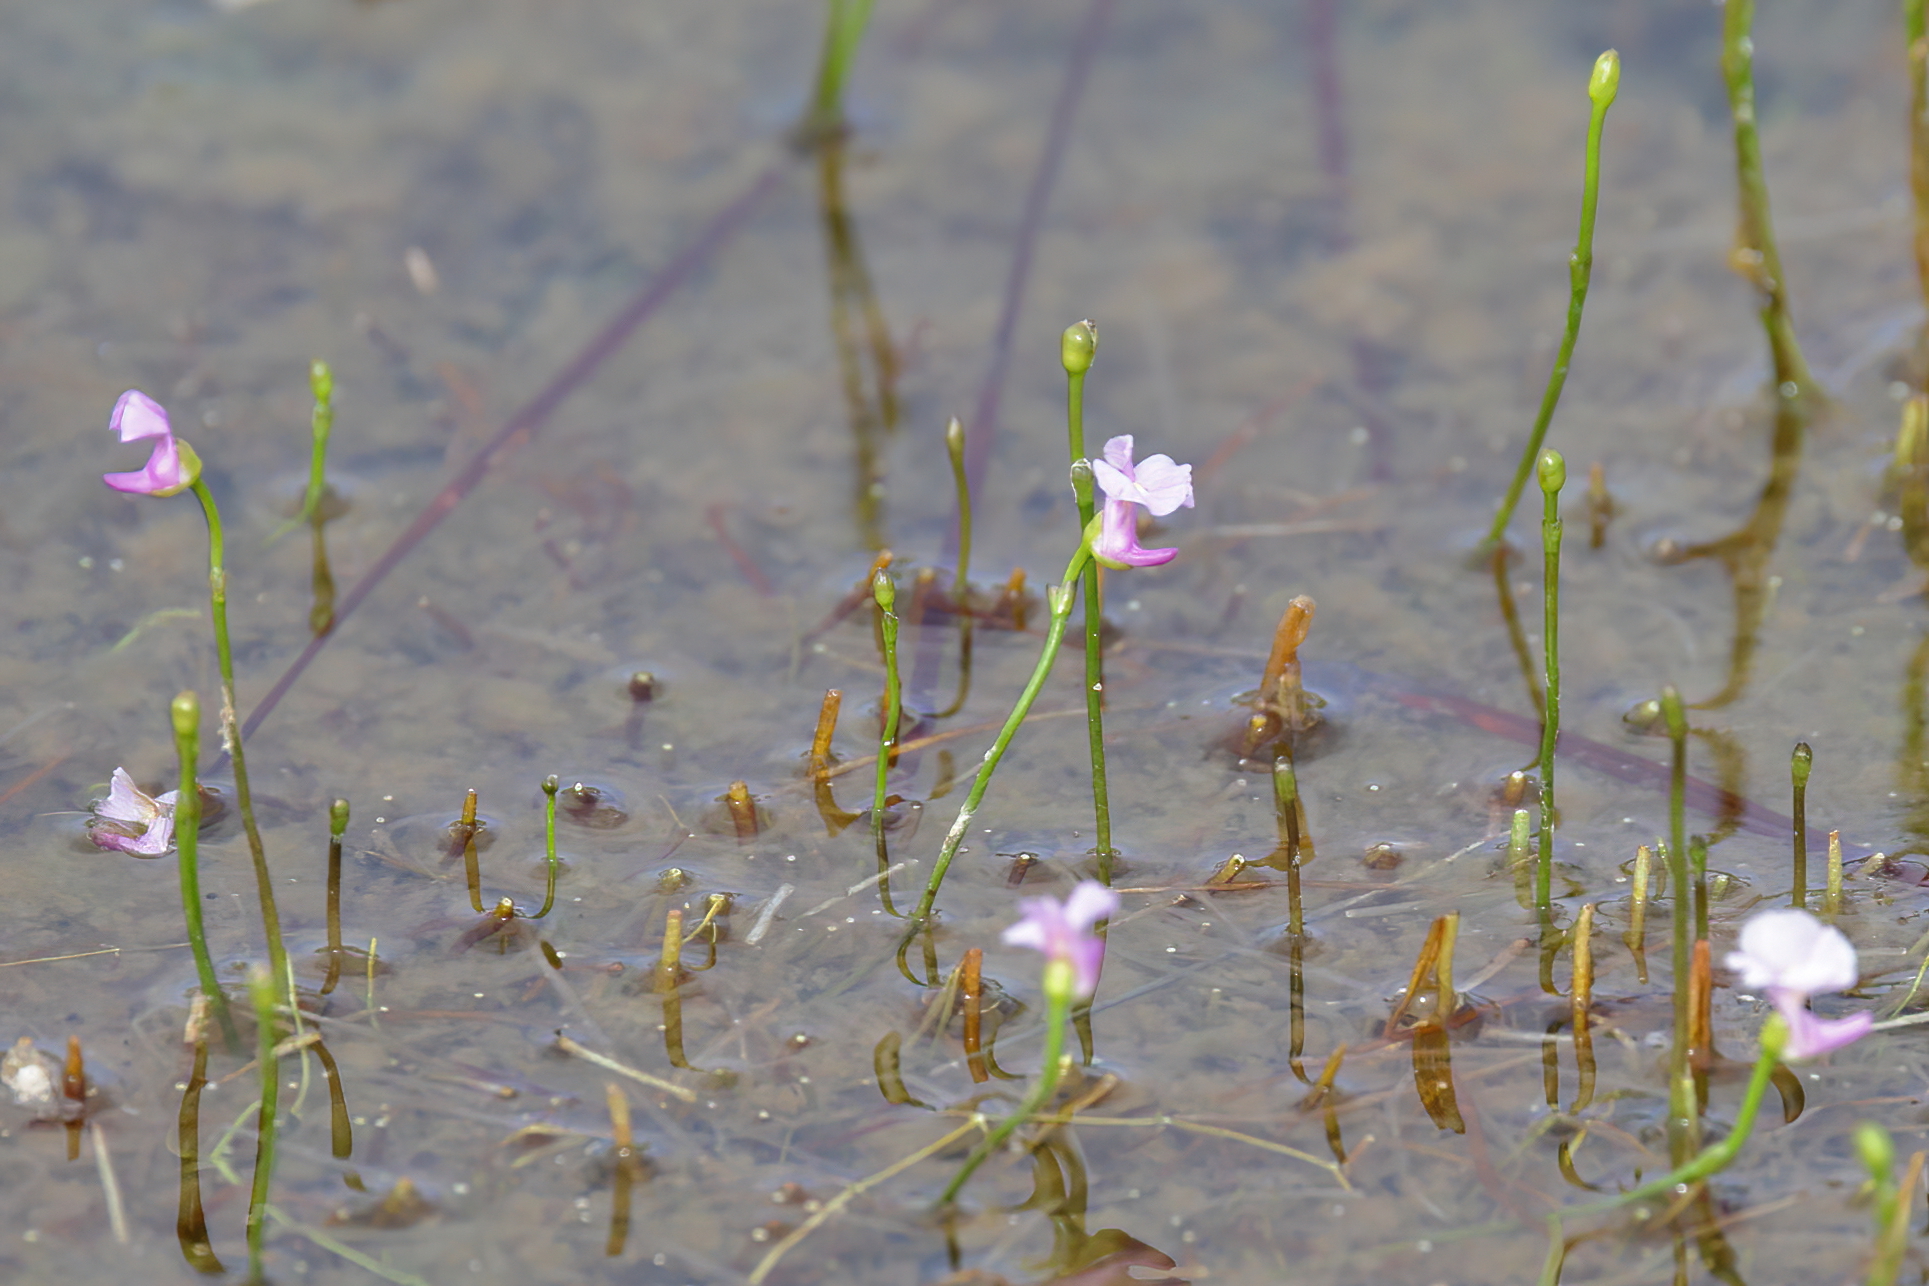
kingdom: Plantae
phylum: Tracheophyta
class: Magnoliopsida
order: Lamiales
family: Lentibulariaceae
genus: Utricularia
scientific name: Utricularia resupinata
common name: Northeastern bladderwort
